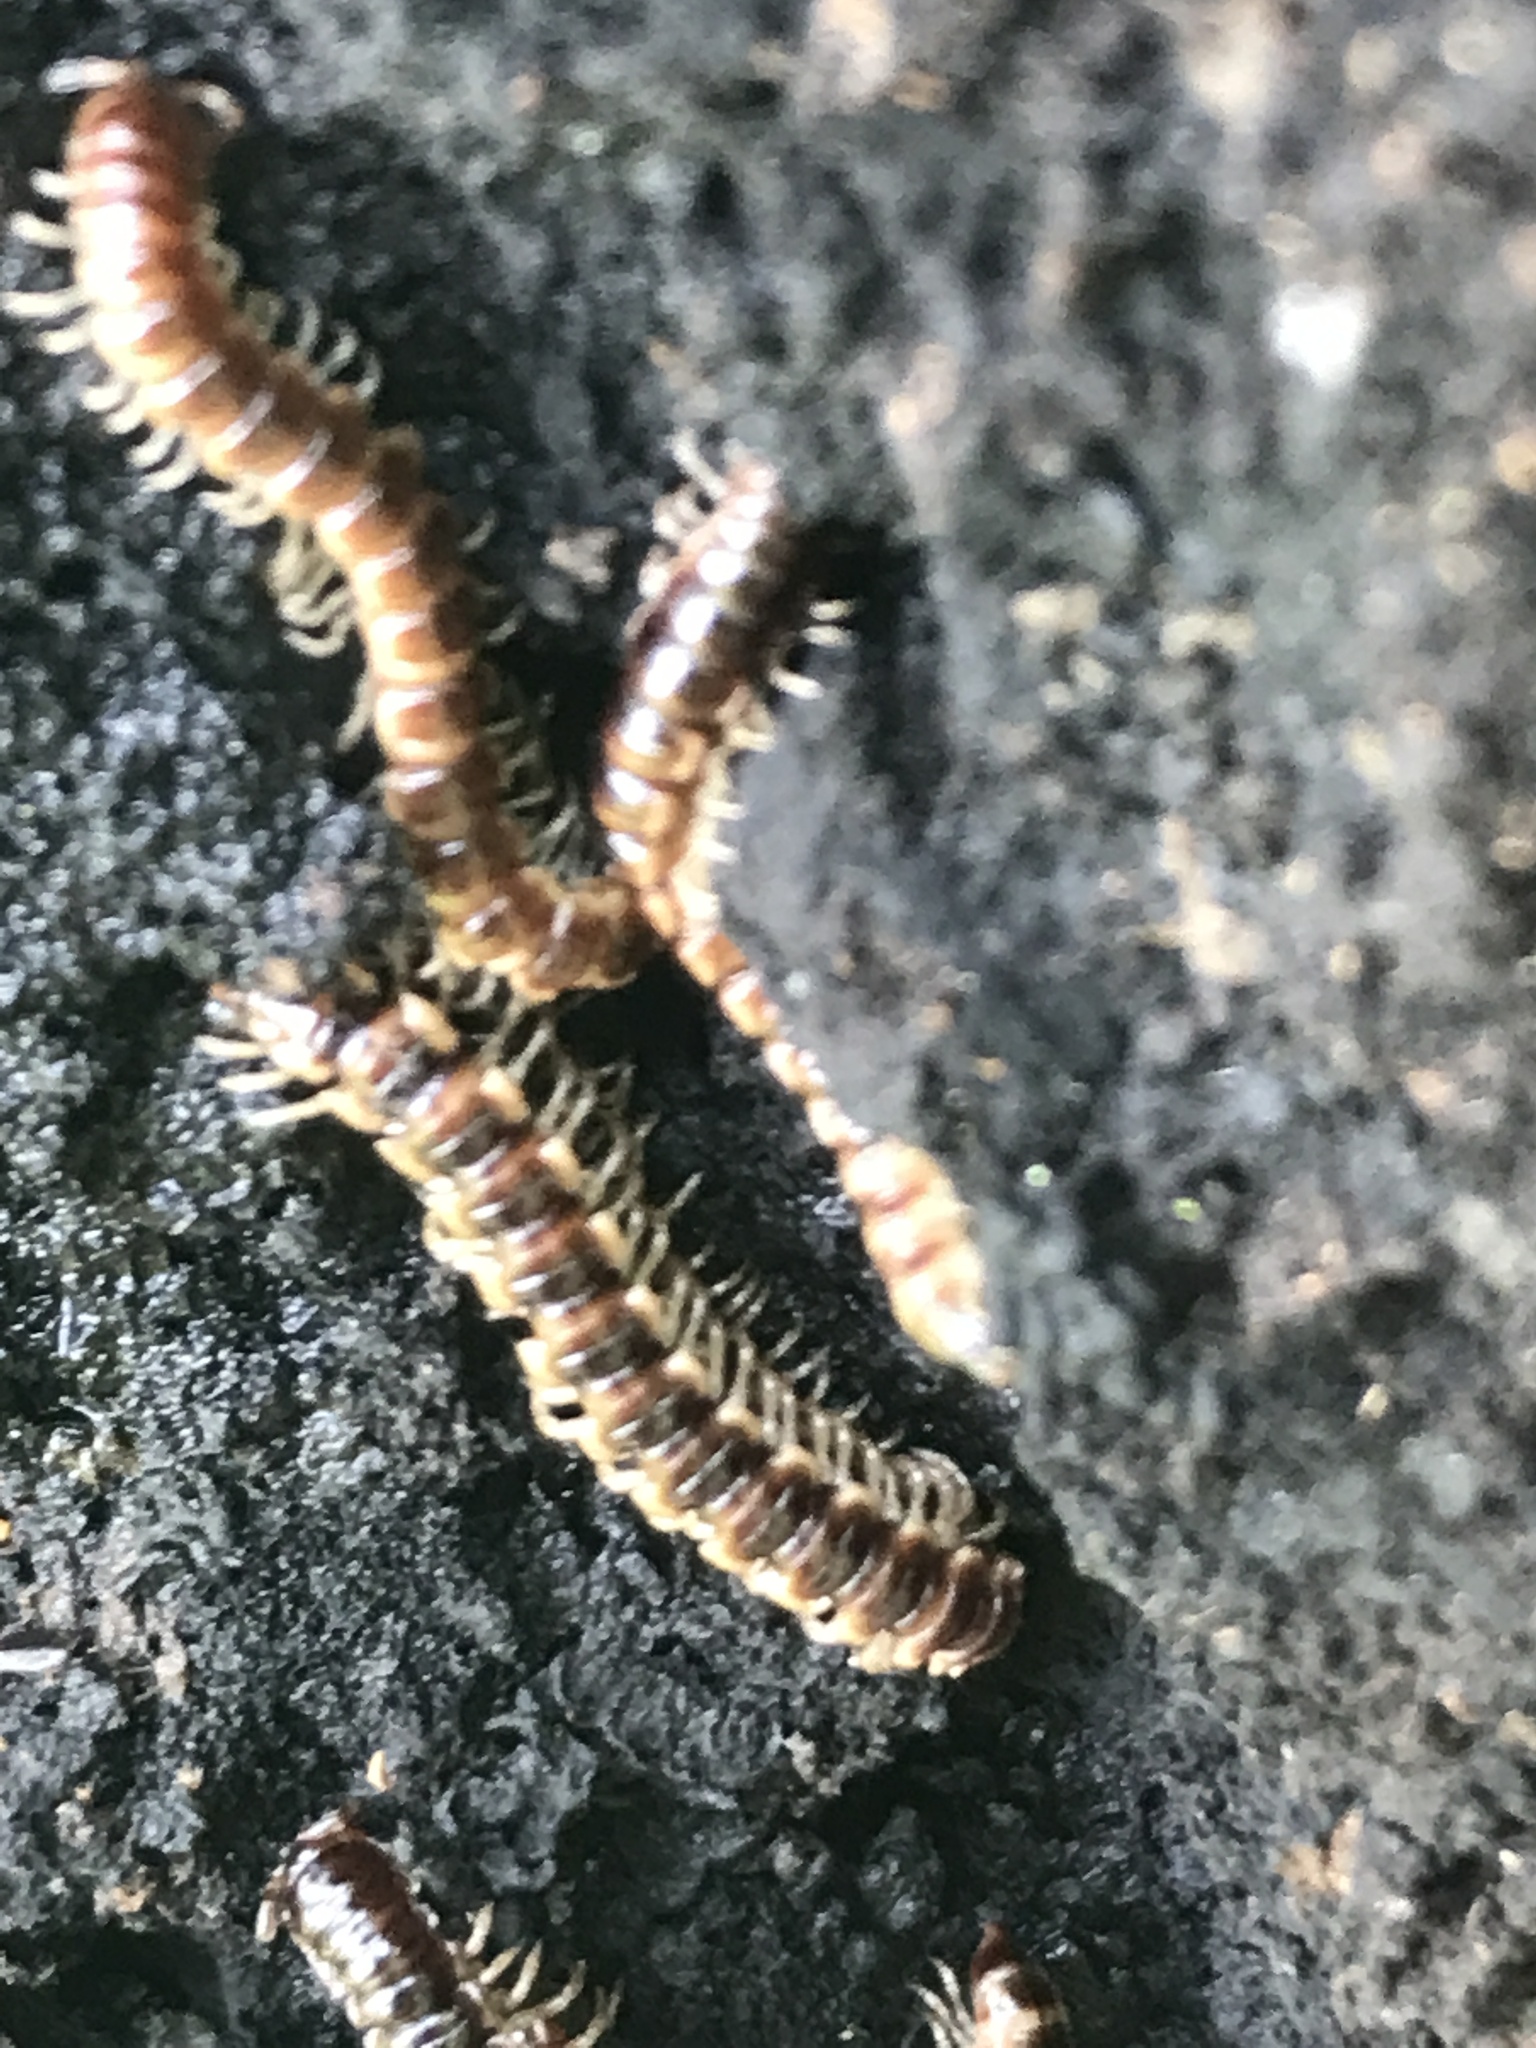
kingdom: Animalia
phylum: Arthropoda
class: Diplopoda
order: Polydesmida
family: Paradoxosomatidae
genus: Oxidus
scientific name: Oxidus gracilis
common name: Greenhouse millipede
